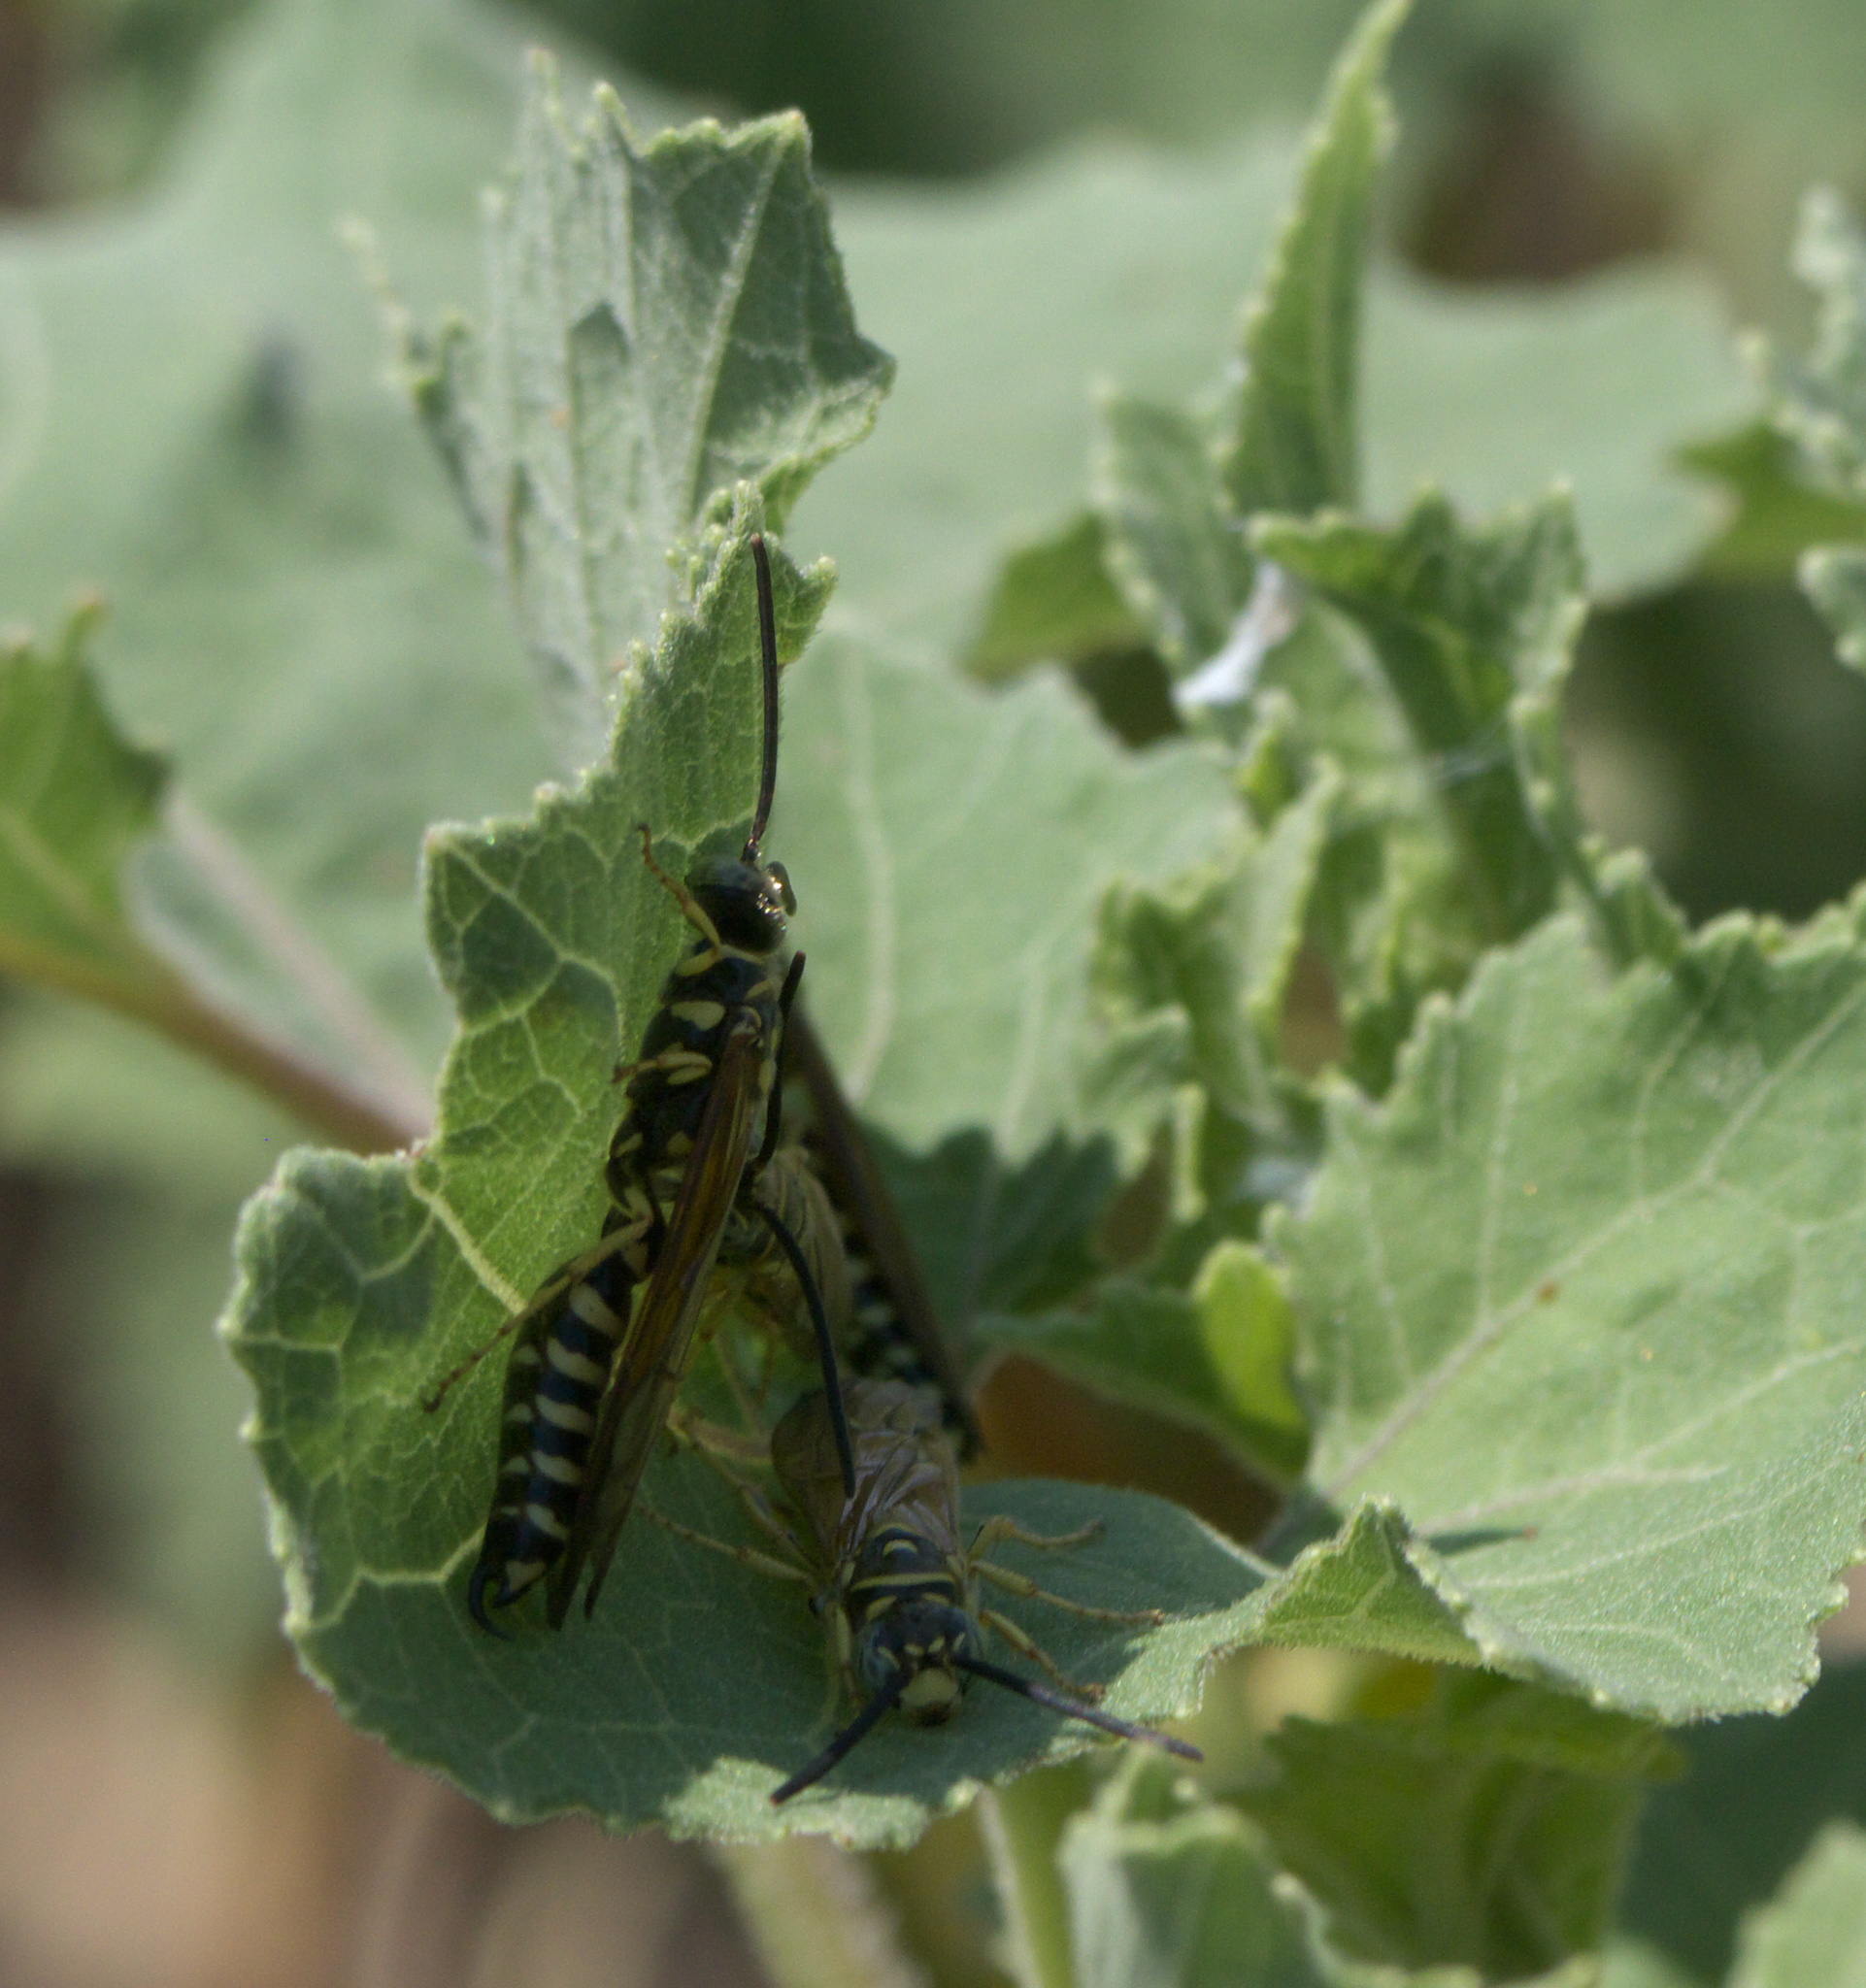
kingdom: Animalia
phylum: Arthropoda
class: Insecta
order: Hymenoptera
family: Tiphiidae
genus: Myzinum
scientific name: Myzinum quinquecinctum
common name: Five-banded thynnid wasp
